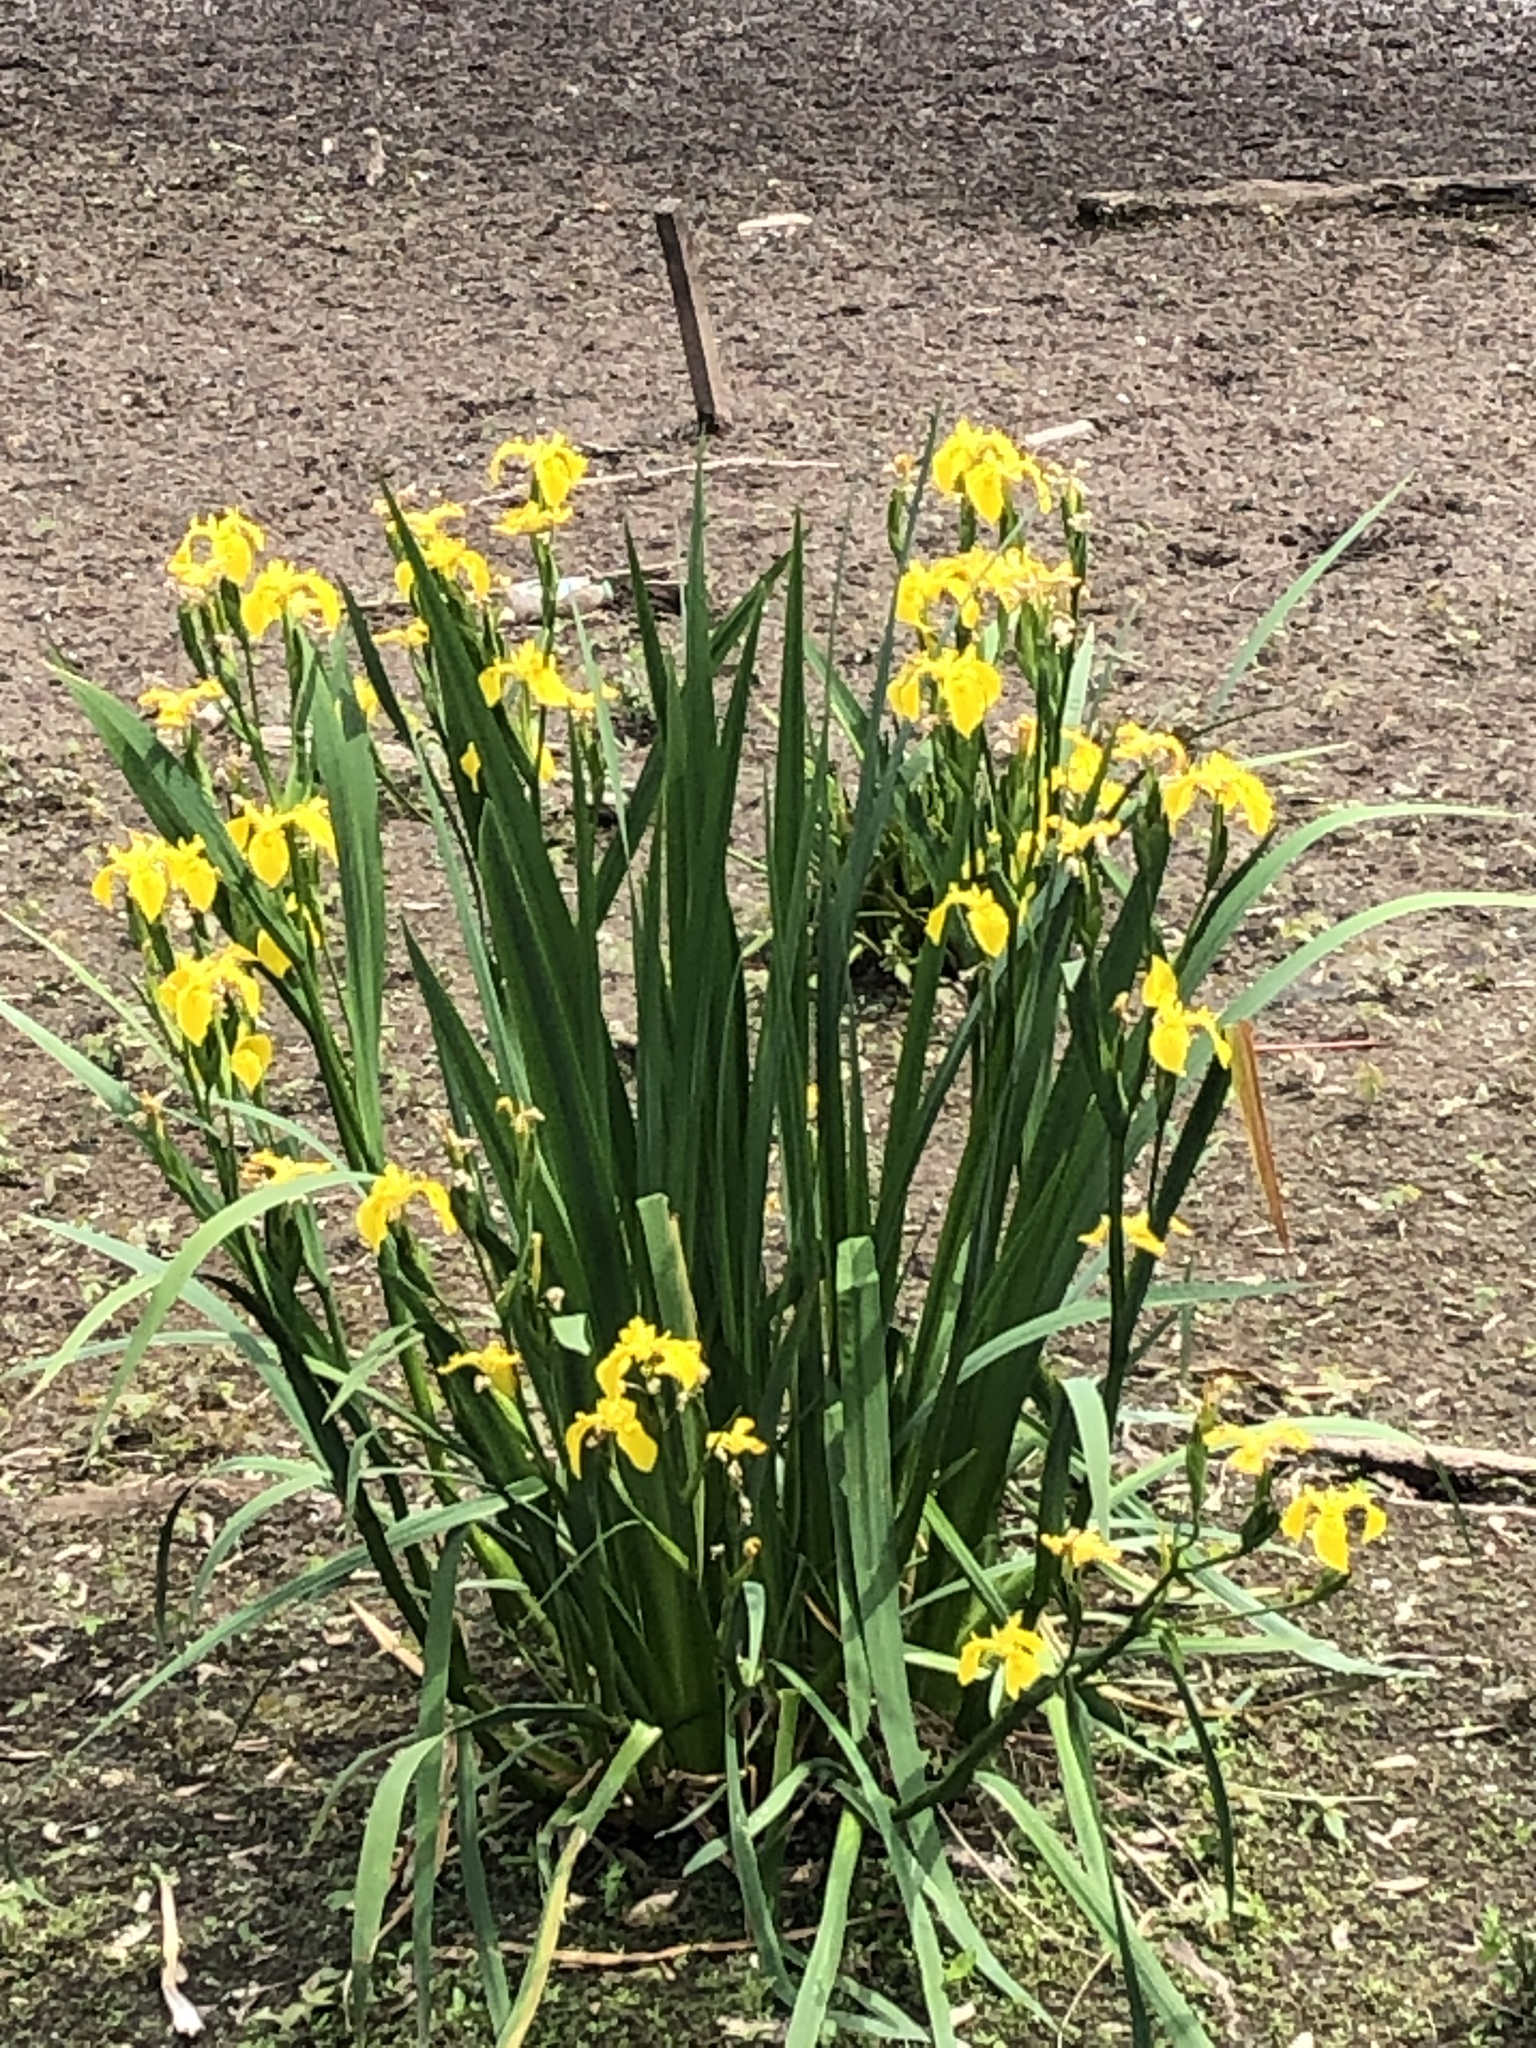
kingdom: Plantae
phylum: Tracheophyta
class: Liliopsida
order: Asparagales
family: Iridaceae
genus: Iris
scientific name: Iris pseudacorus
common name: Yellow flag
